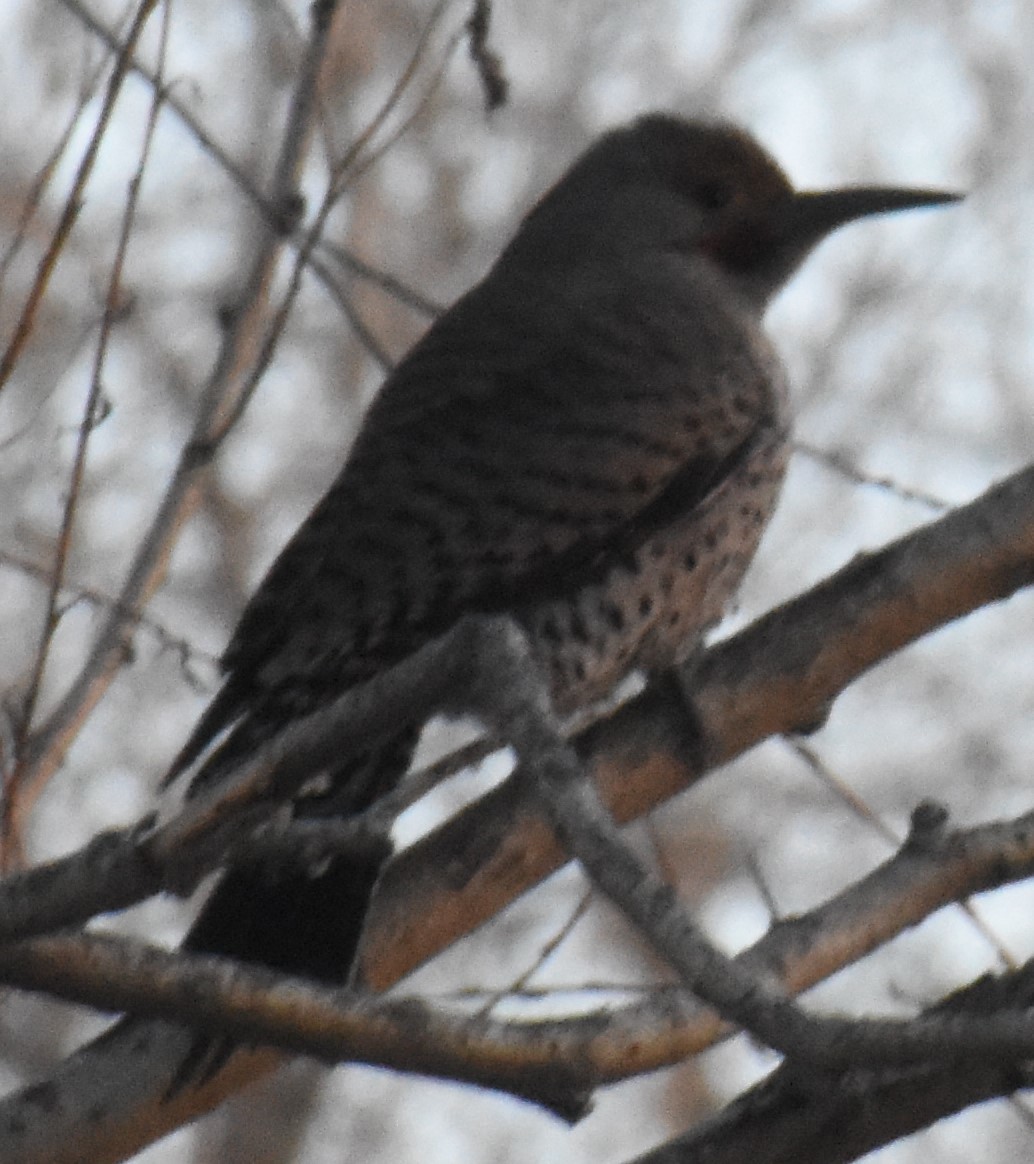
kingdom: Animalia
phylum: Chordata
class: Aves
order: Piciformes
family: Picidae
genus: Colaptes
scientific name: Colaptes auratus
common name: Northern flicker
